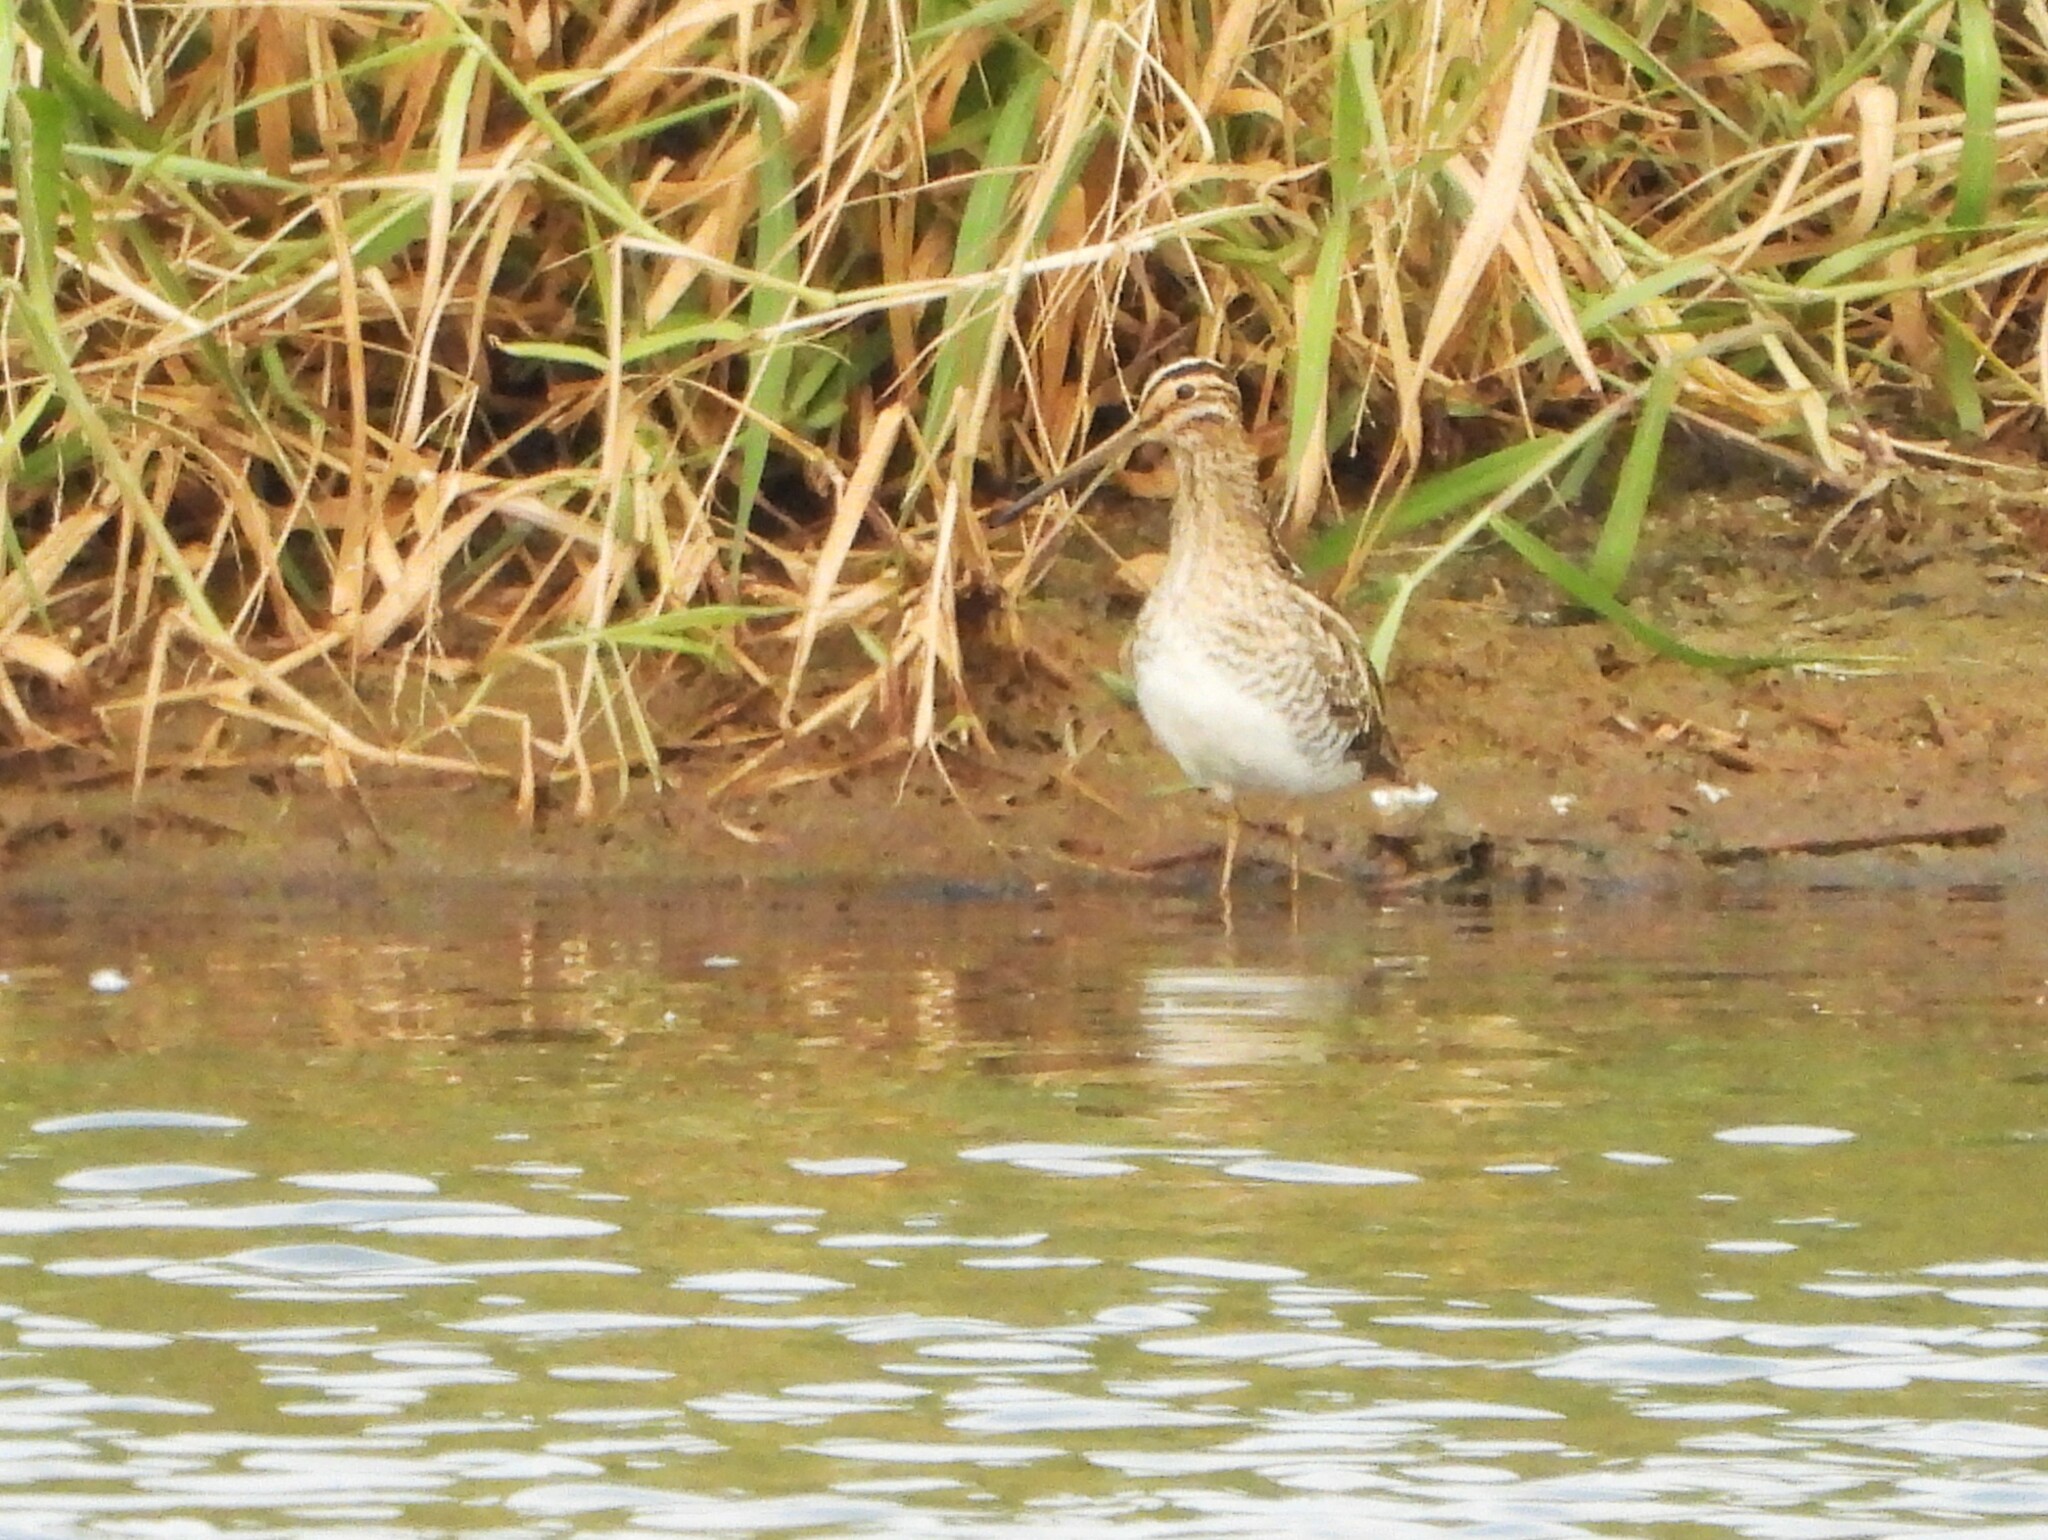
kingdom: Animalia
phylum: Chordata
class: Aves
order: Charadriiformes
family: Scolopacidae
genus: Gallinago
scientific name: Gallinago gallinago
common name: Common snipe
